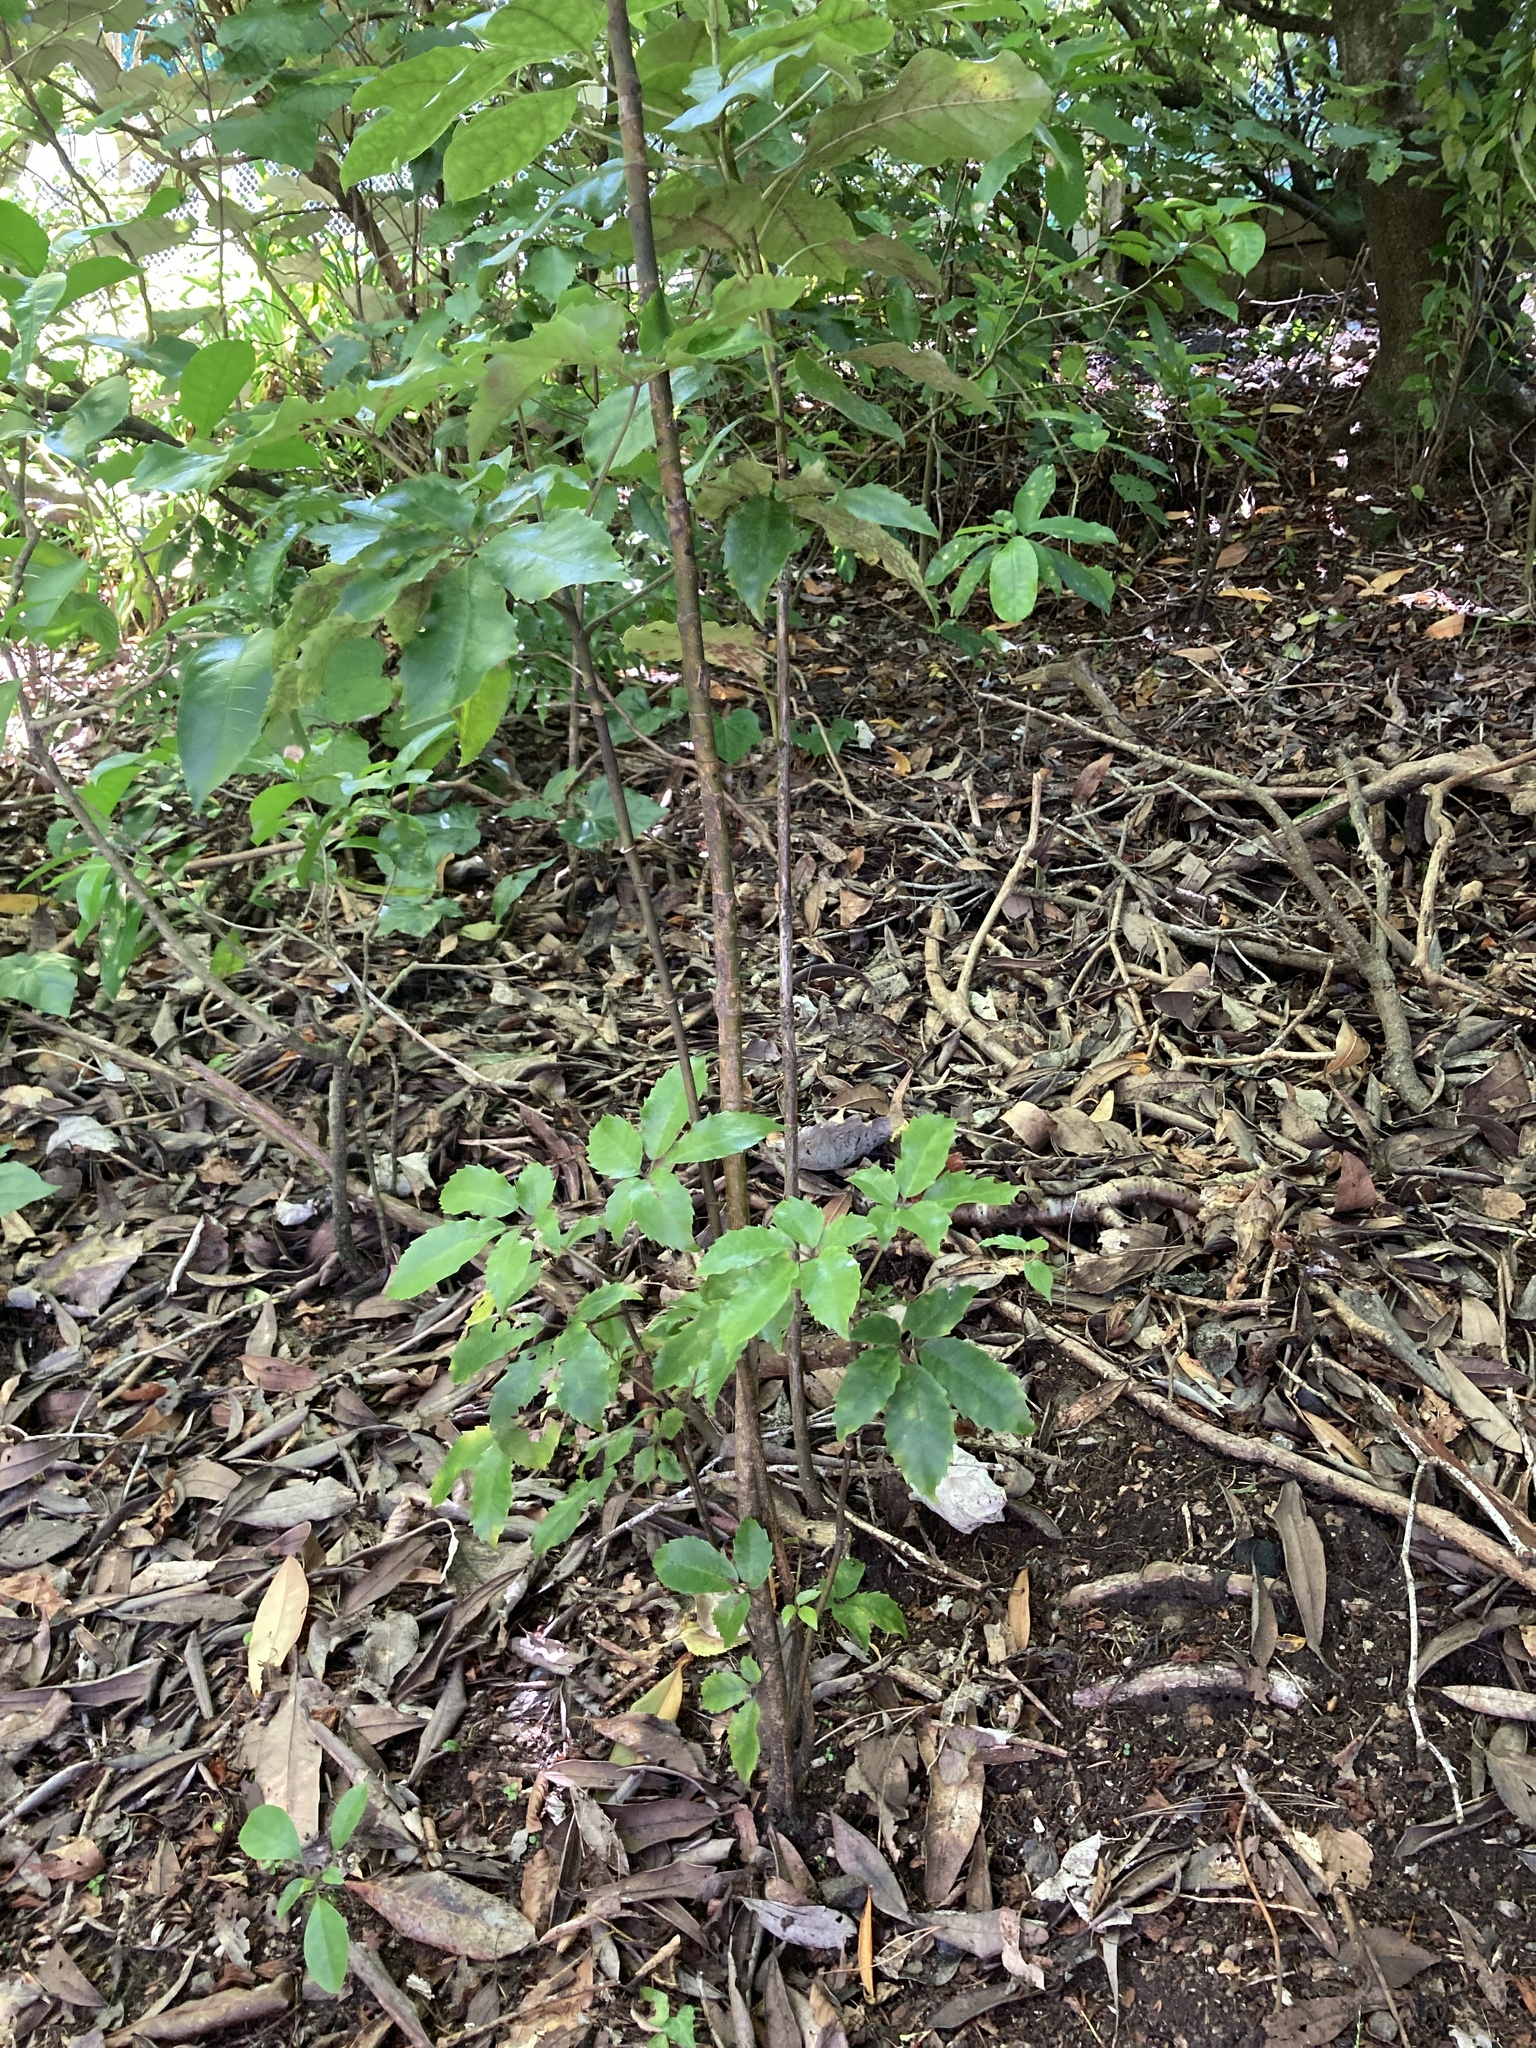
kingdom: Plantae
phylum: Tracheophyta
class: Magnoliopsida
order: Apiales
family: Araliaceae
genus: Neopanax
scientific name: Neopanax arboreus
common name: Five-fingers
